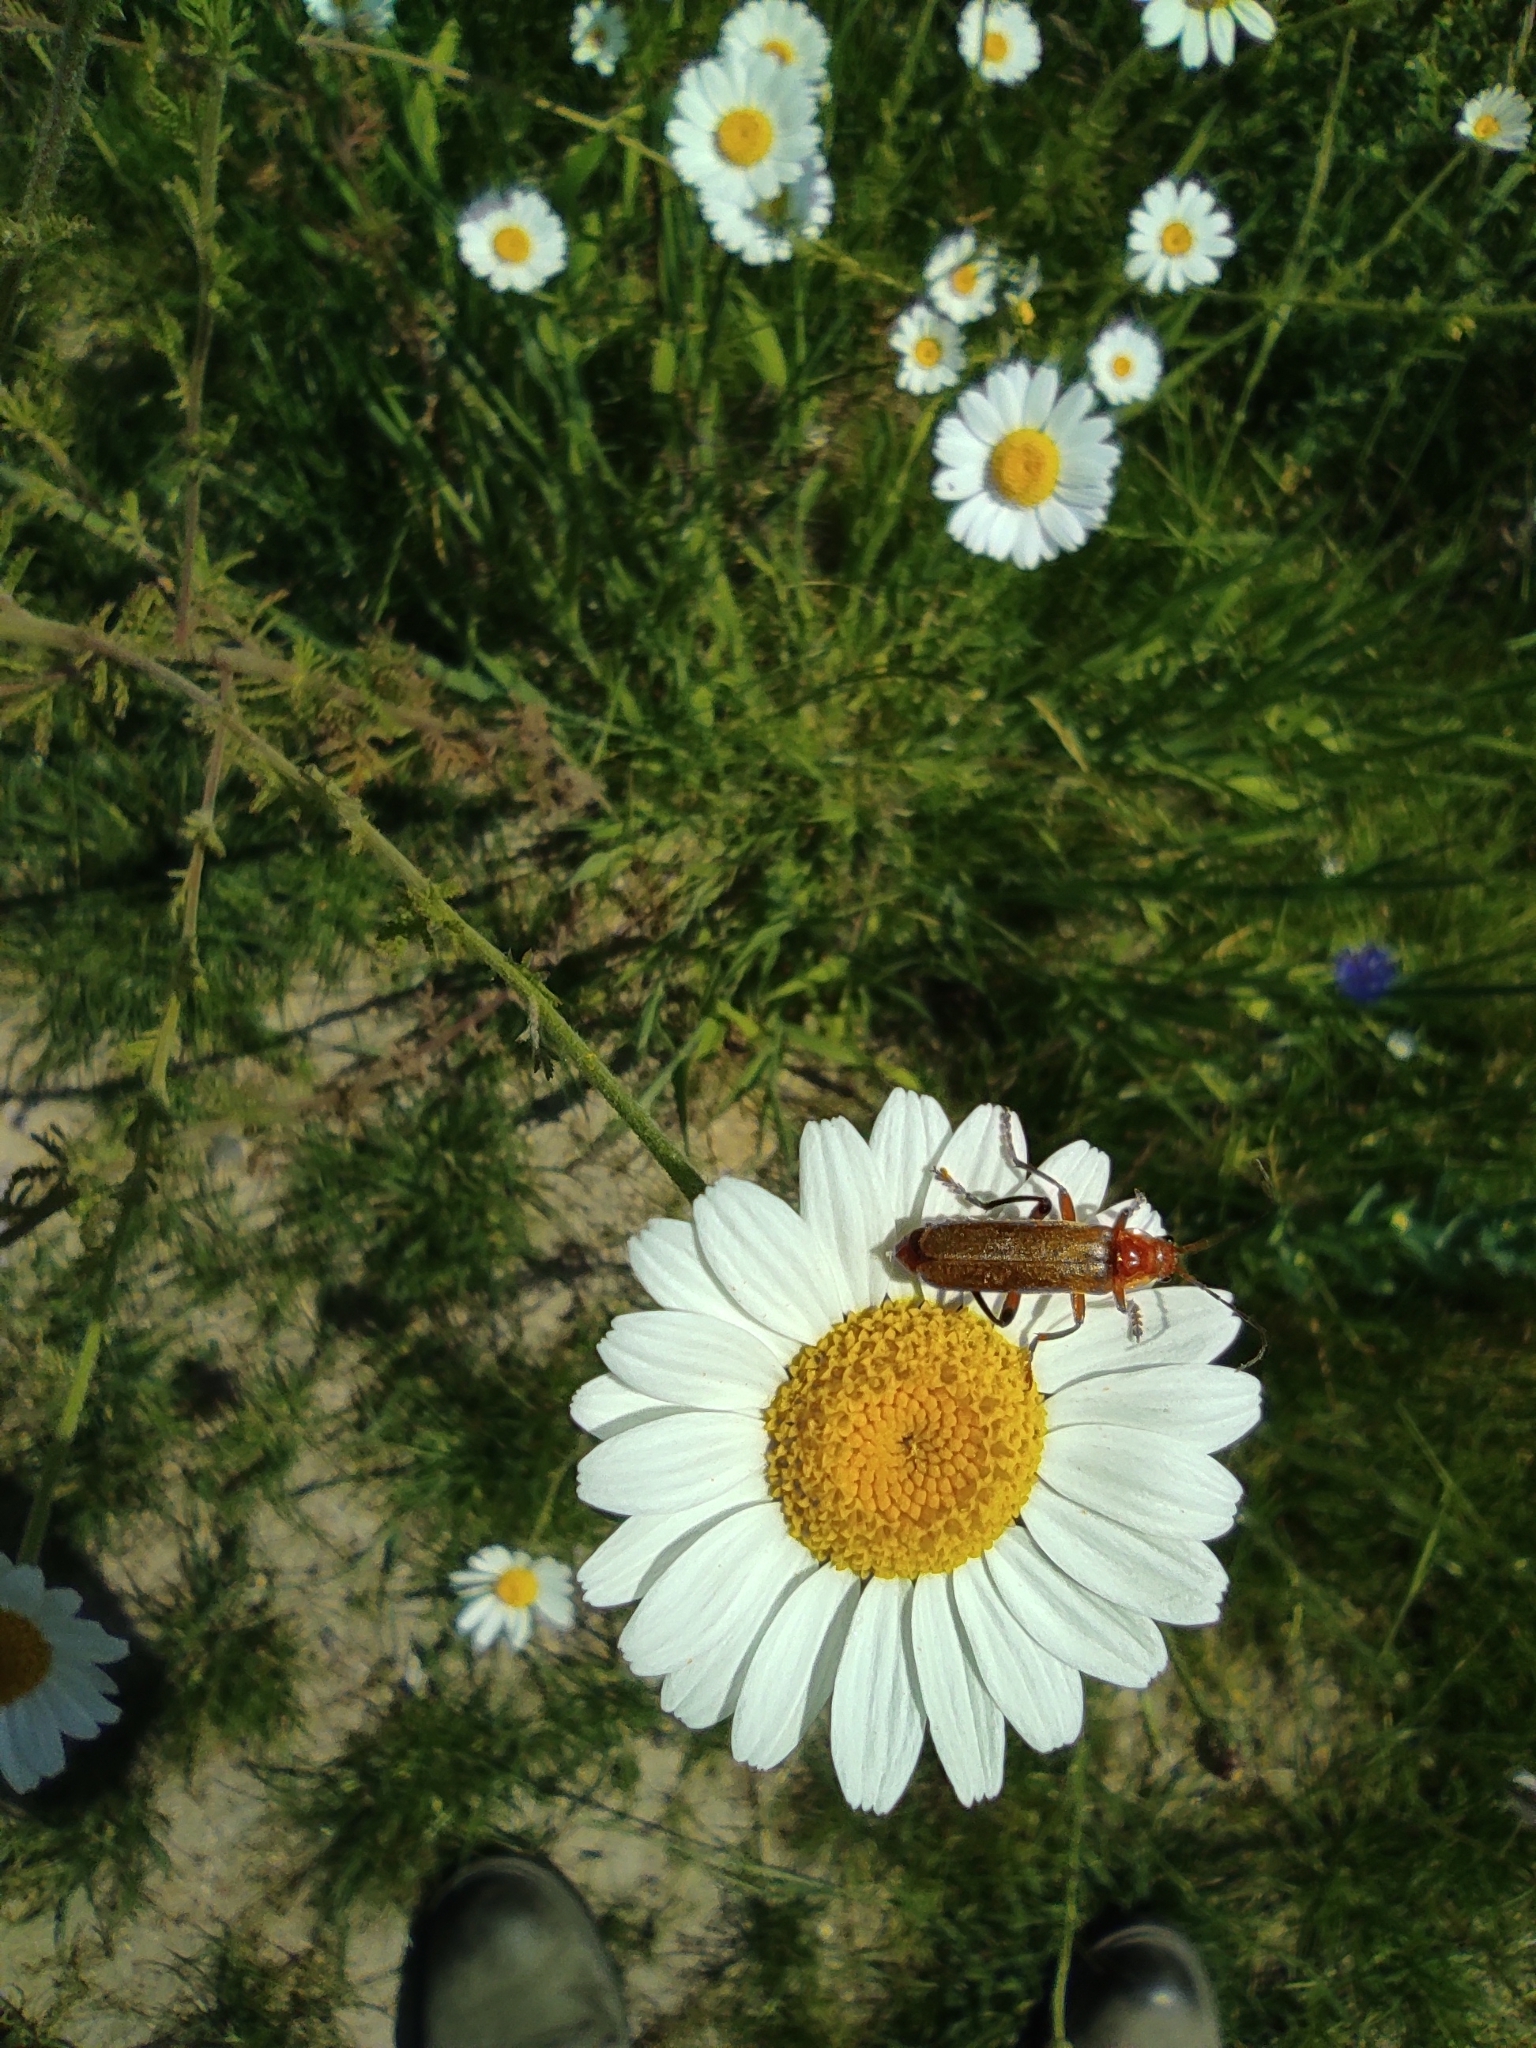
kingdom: Animalia
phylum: Arthropoda
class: Insecta
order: Coleoptera
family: Cantharidae
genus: Cantharis
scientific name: Cantharis livida
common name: Livid soldier beetle
